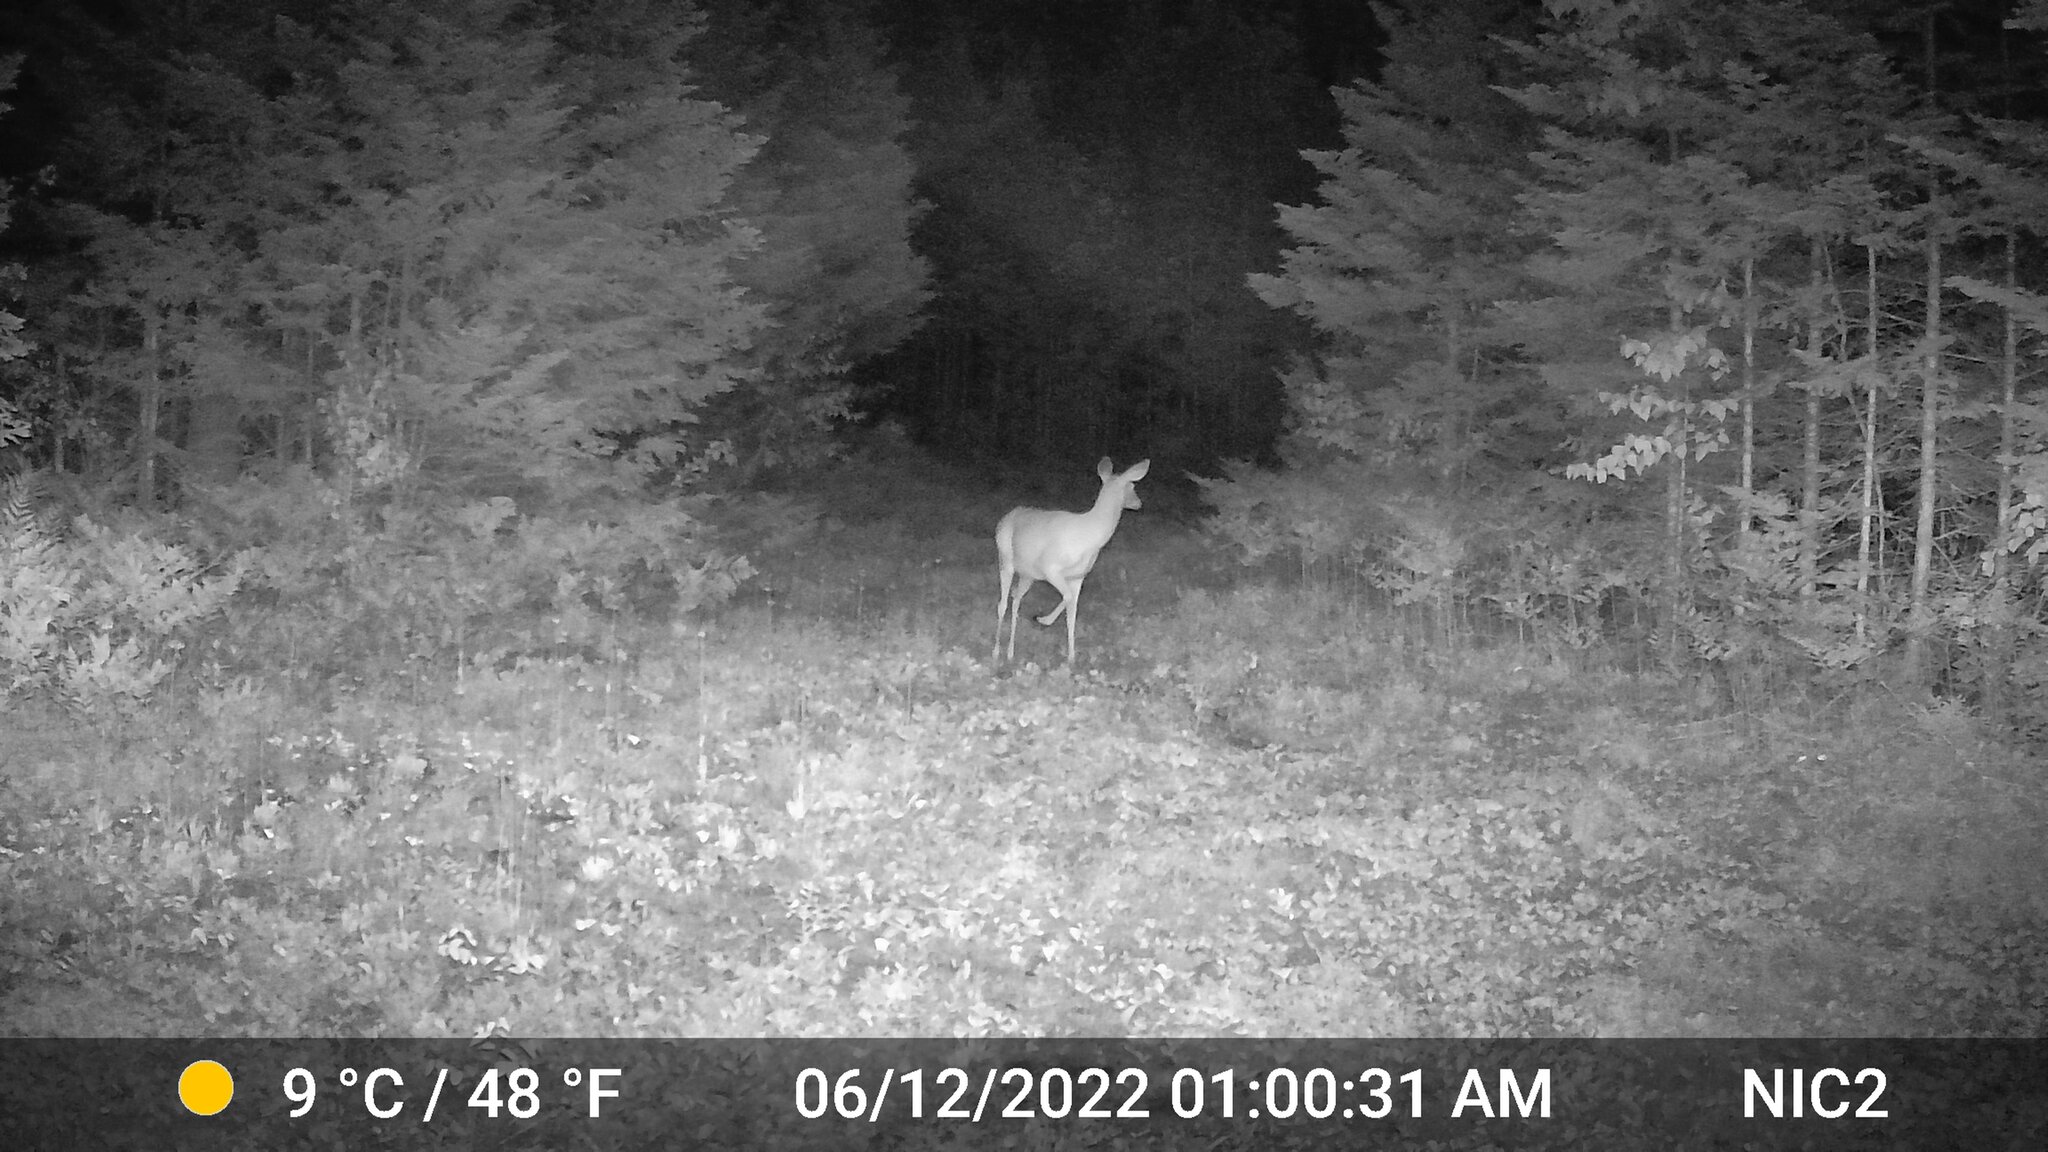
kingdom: Animalia
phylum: Chordata
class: Mammalia
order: Artiodactyla
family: Cervidae
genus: Odocoileus
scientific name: Odocoileus virginianus
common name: White-tailed deer
